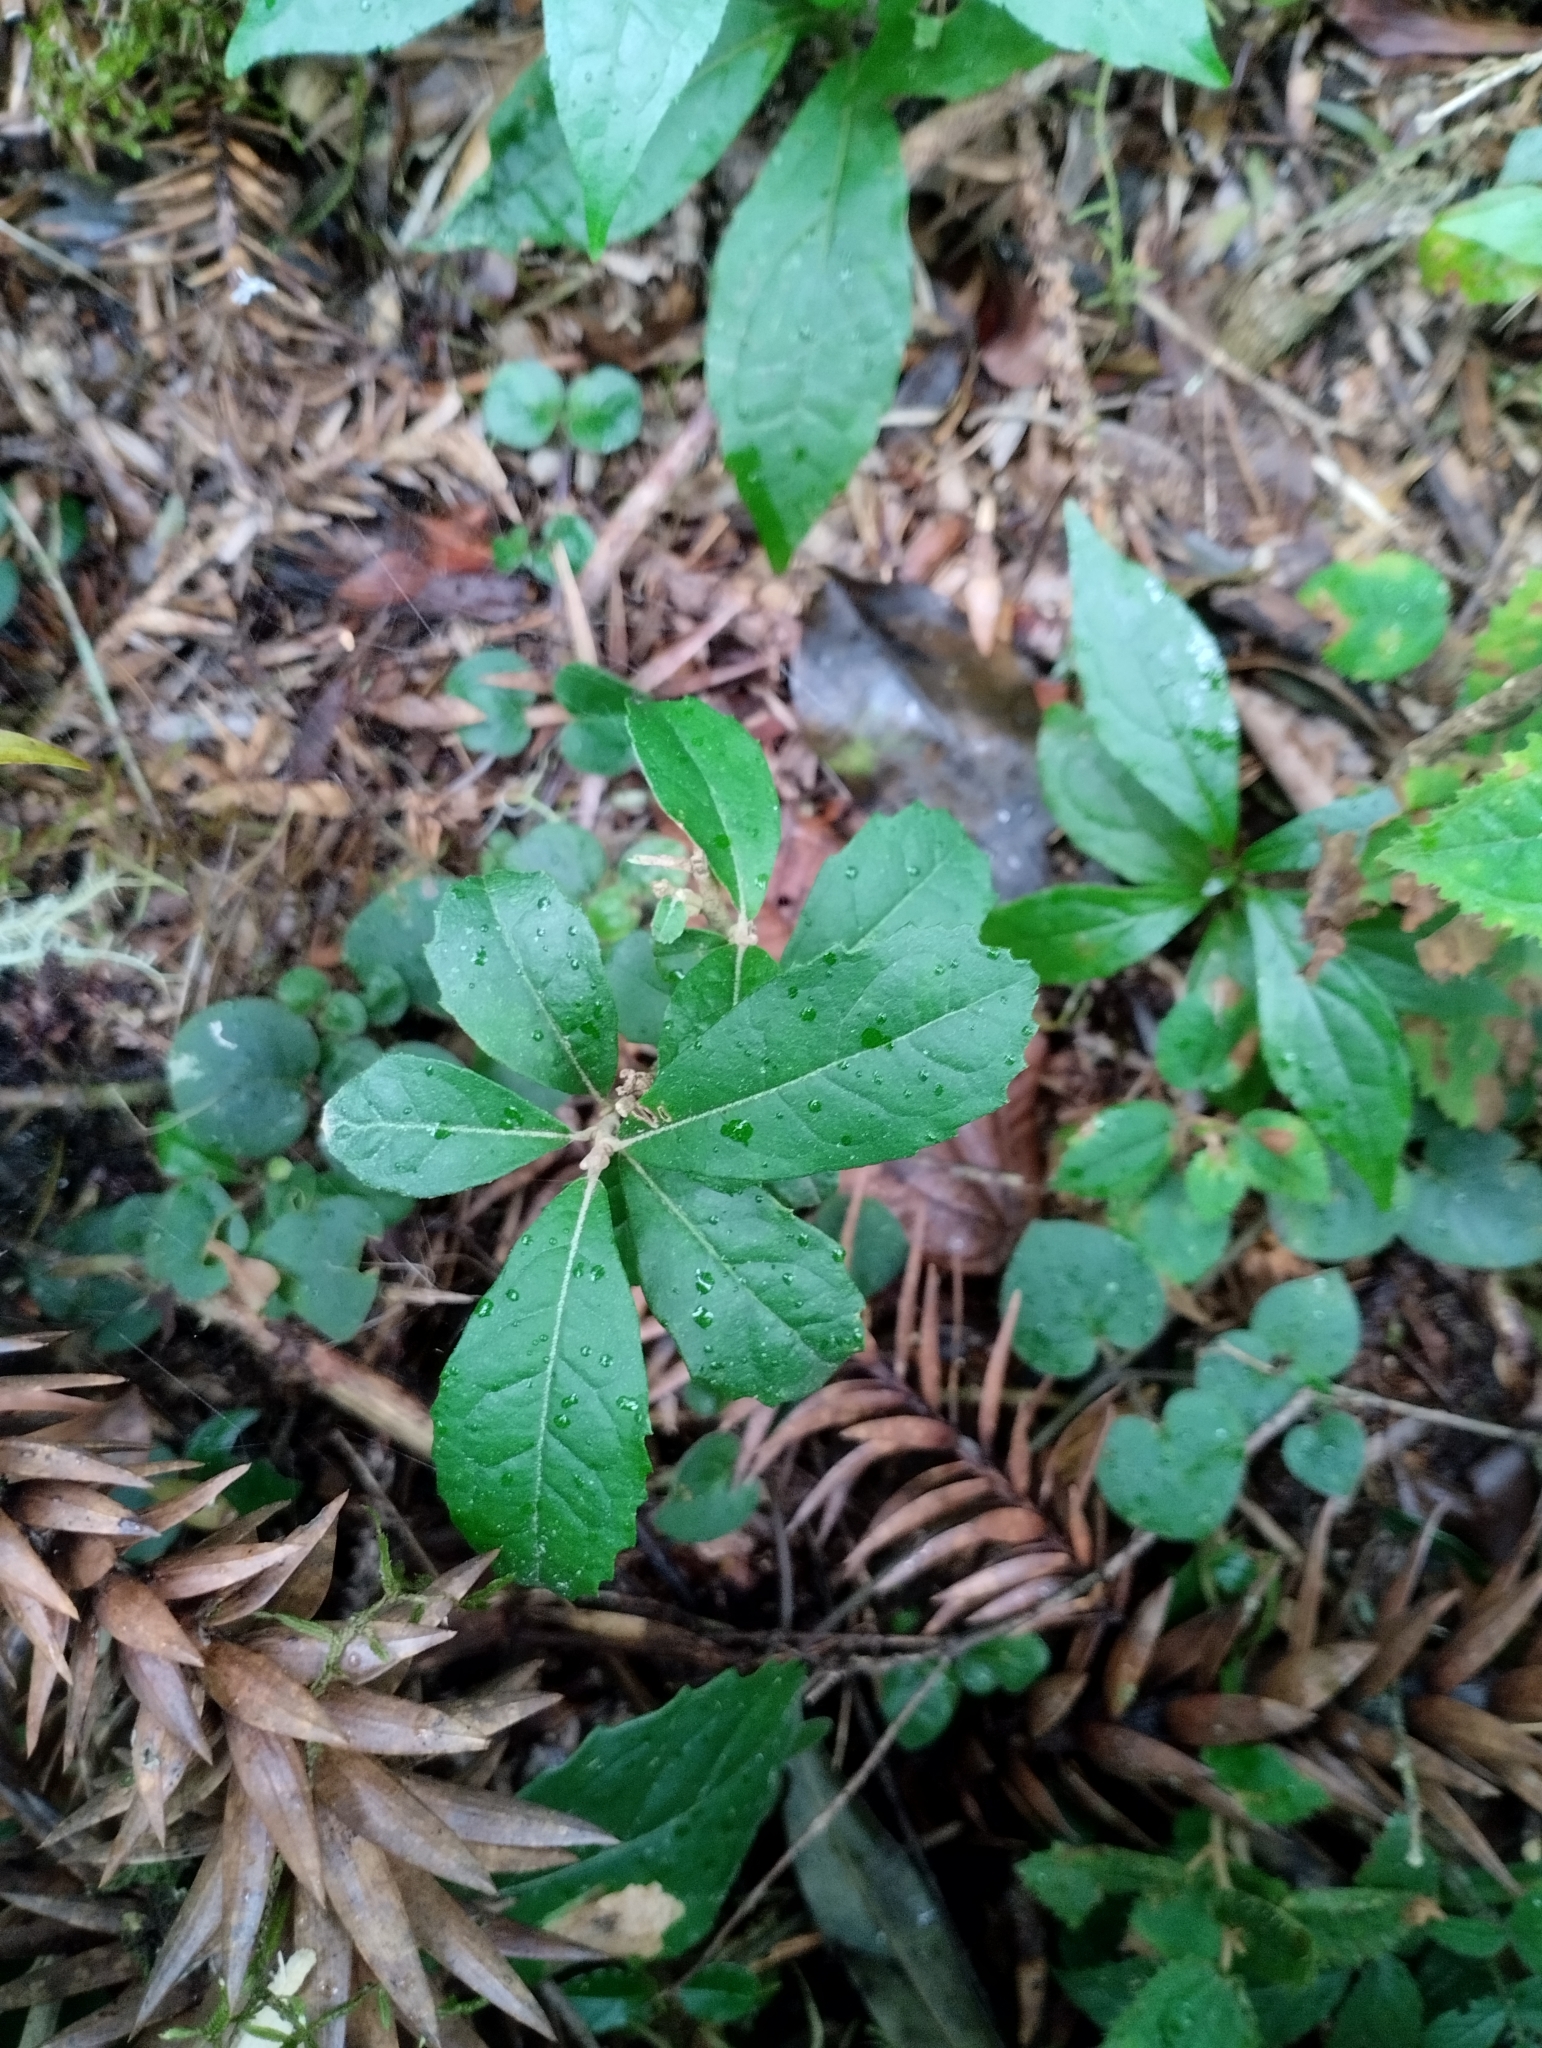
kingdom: Plantae
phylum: Tracheophyta
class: Magnoliopsida
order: Aquifoliales
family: Aquifoliaceae
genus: Ilex
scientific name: Ilex paraguariensis
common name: Paraguay tea
